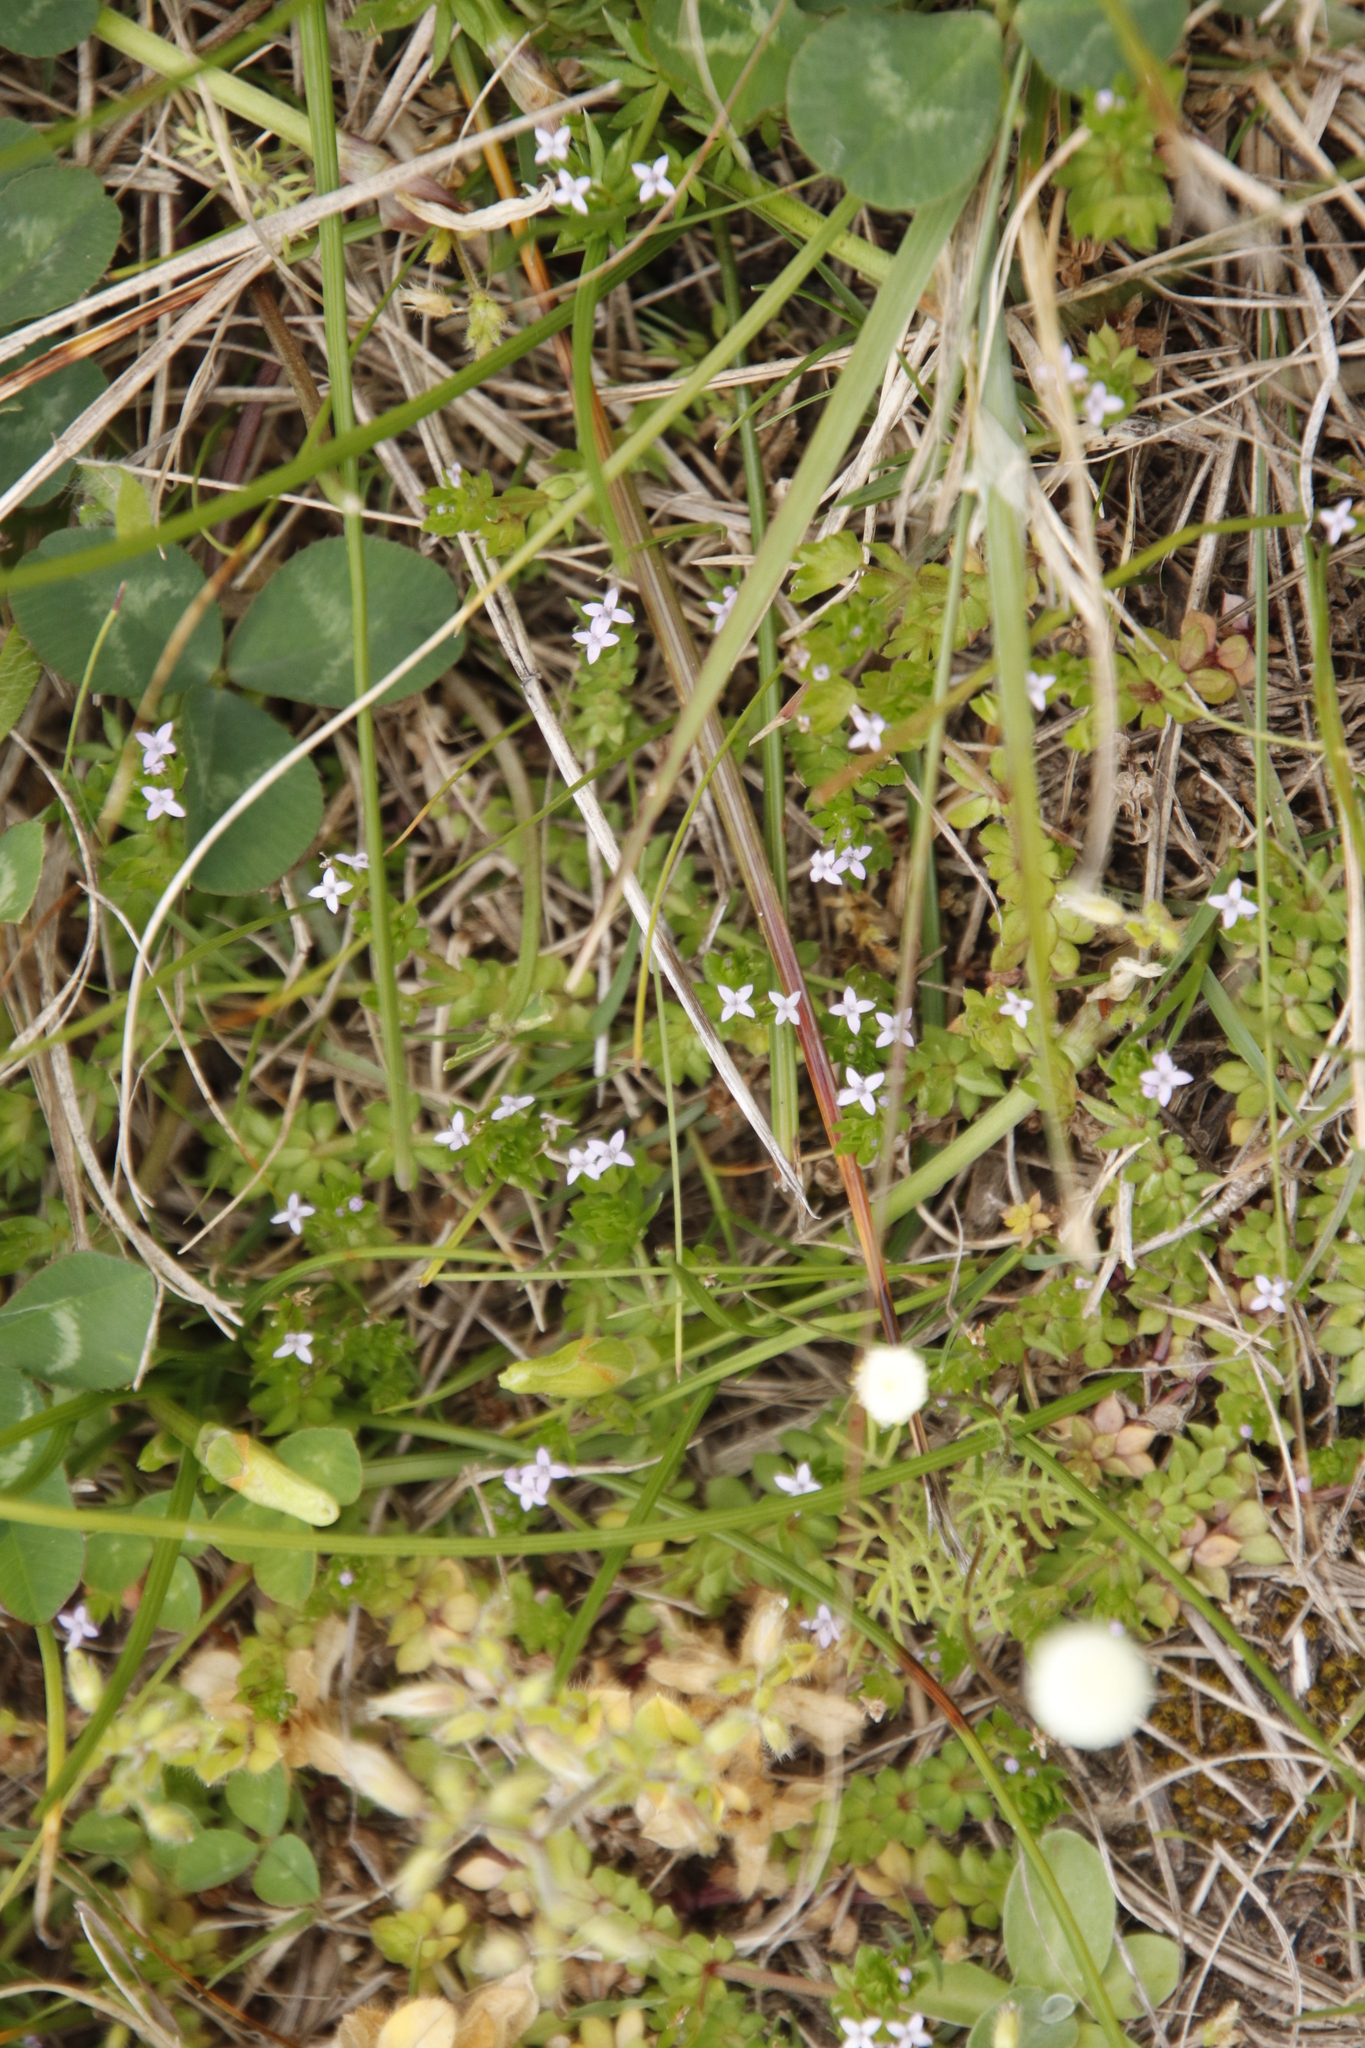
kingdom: Plantae
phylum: Tracheophyta
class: Magnoliopsida
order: Gentianales
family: Rubiaceae
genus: Sherardia
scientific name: Sherardia arvensis
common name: Field madder
